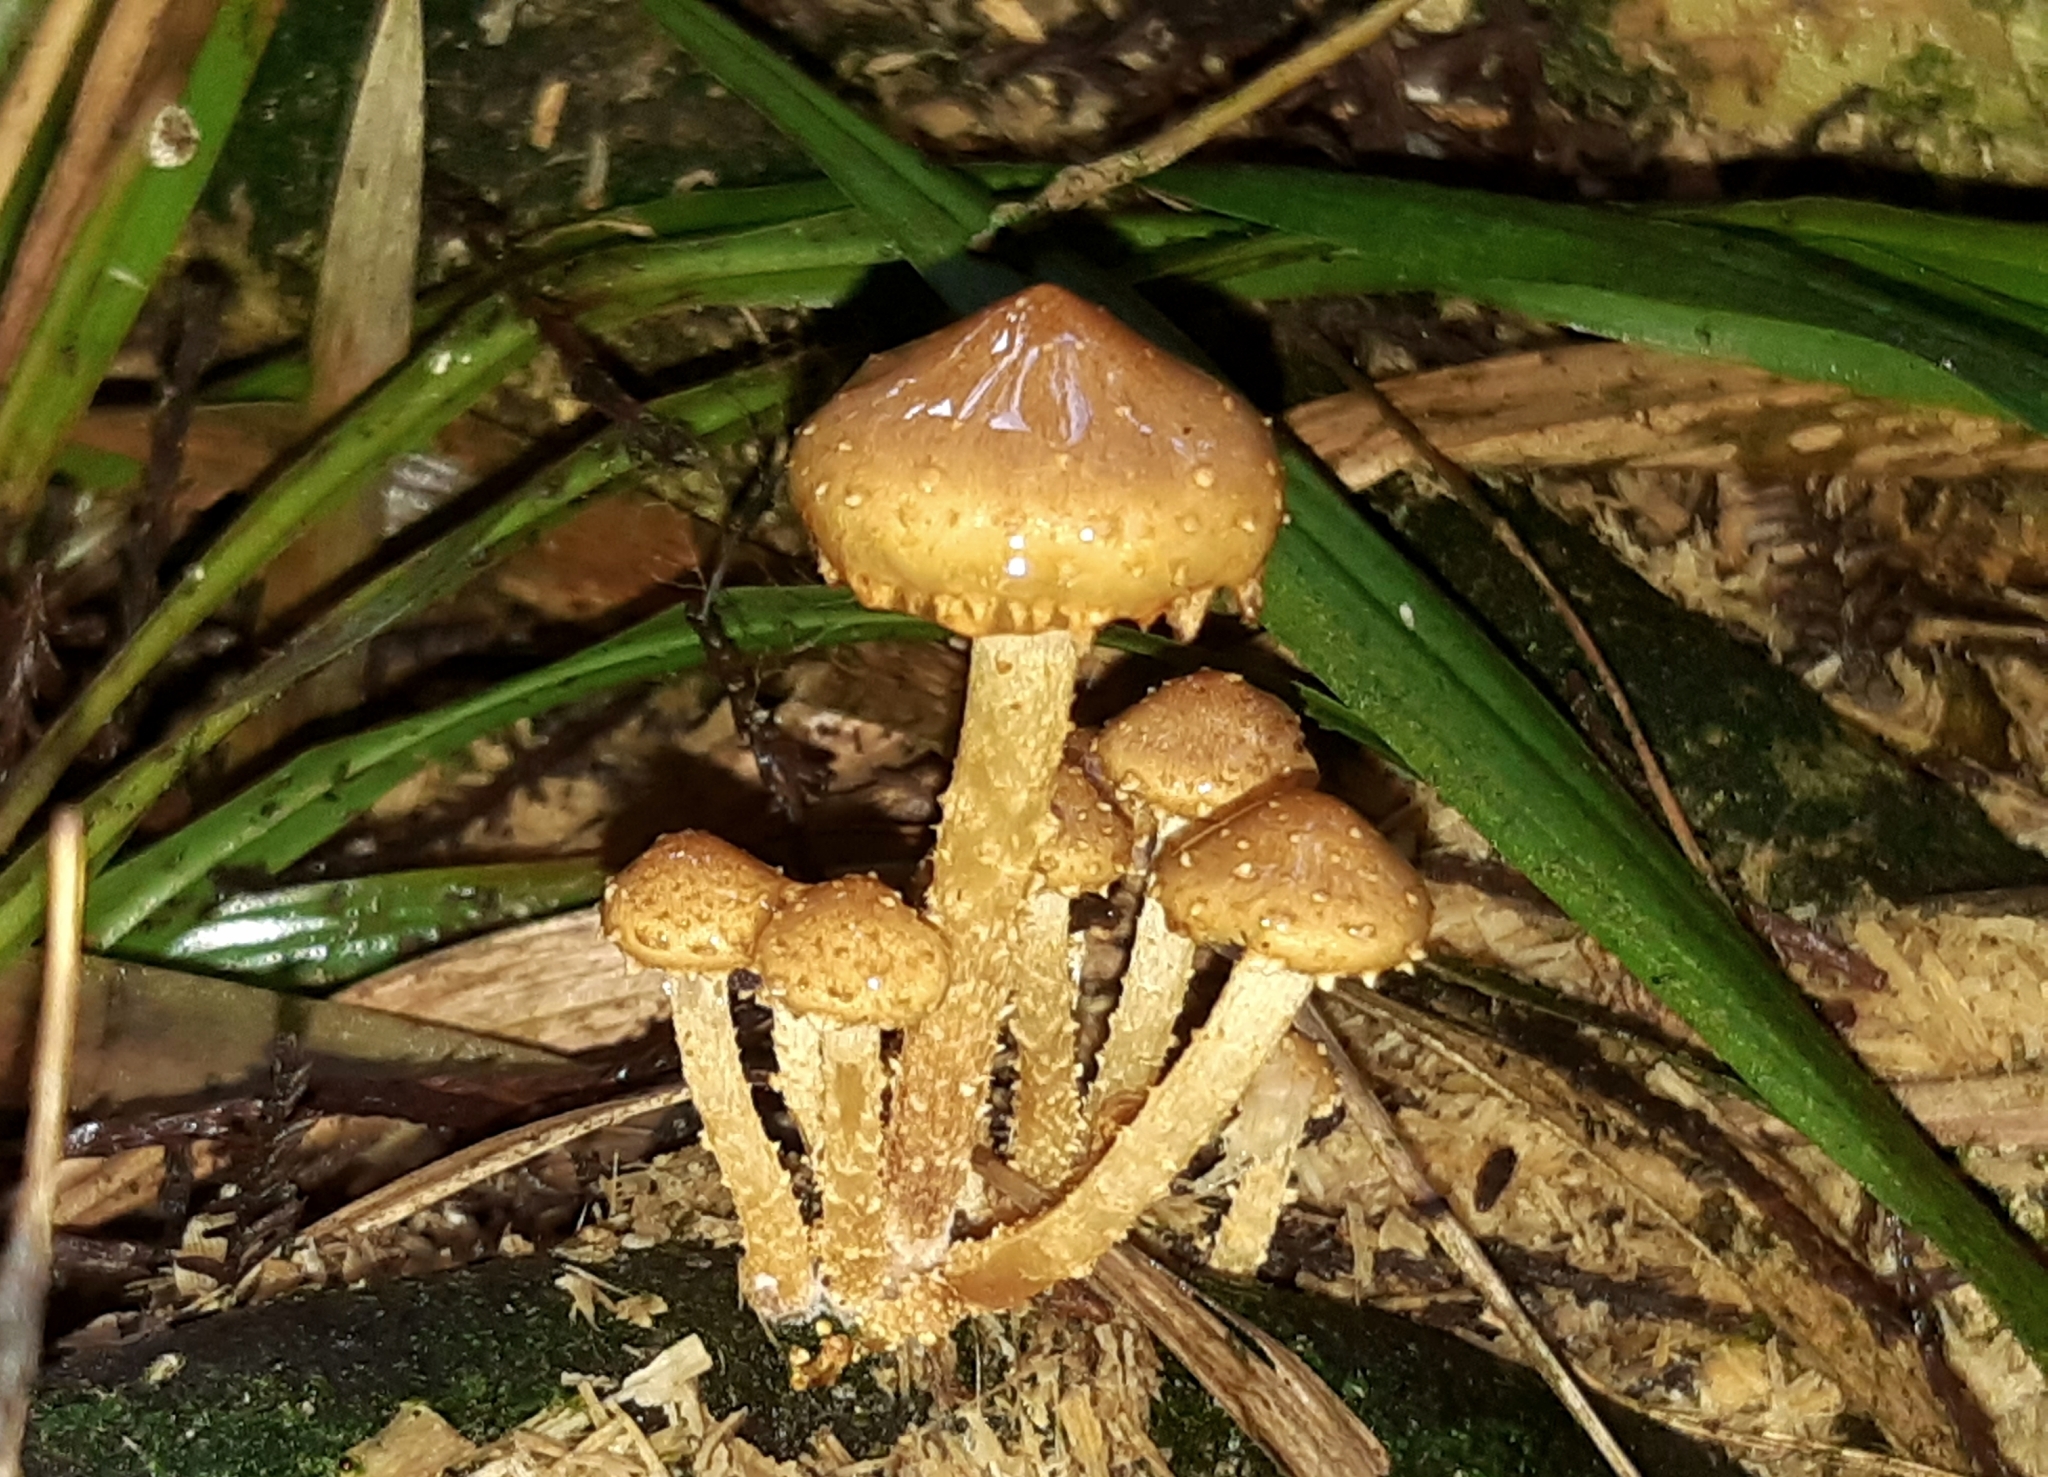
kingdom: Fungi
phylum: Basidiomycota
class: Agaricomycetes
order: Agaricales
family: Strophariaceae
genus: Pholiota
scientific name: Pholiota subflammans
